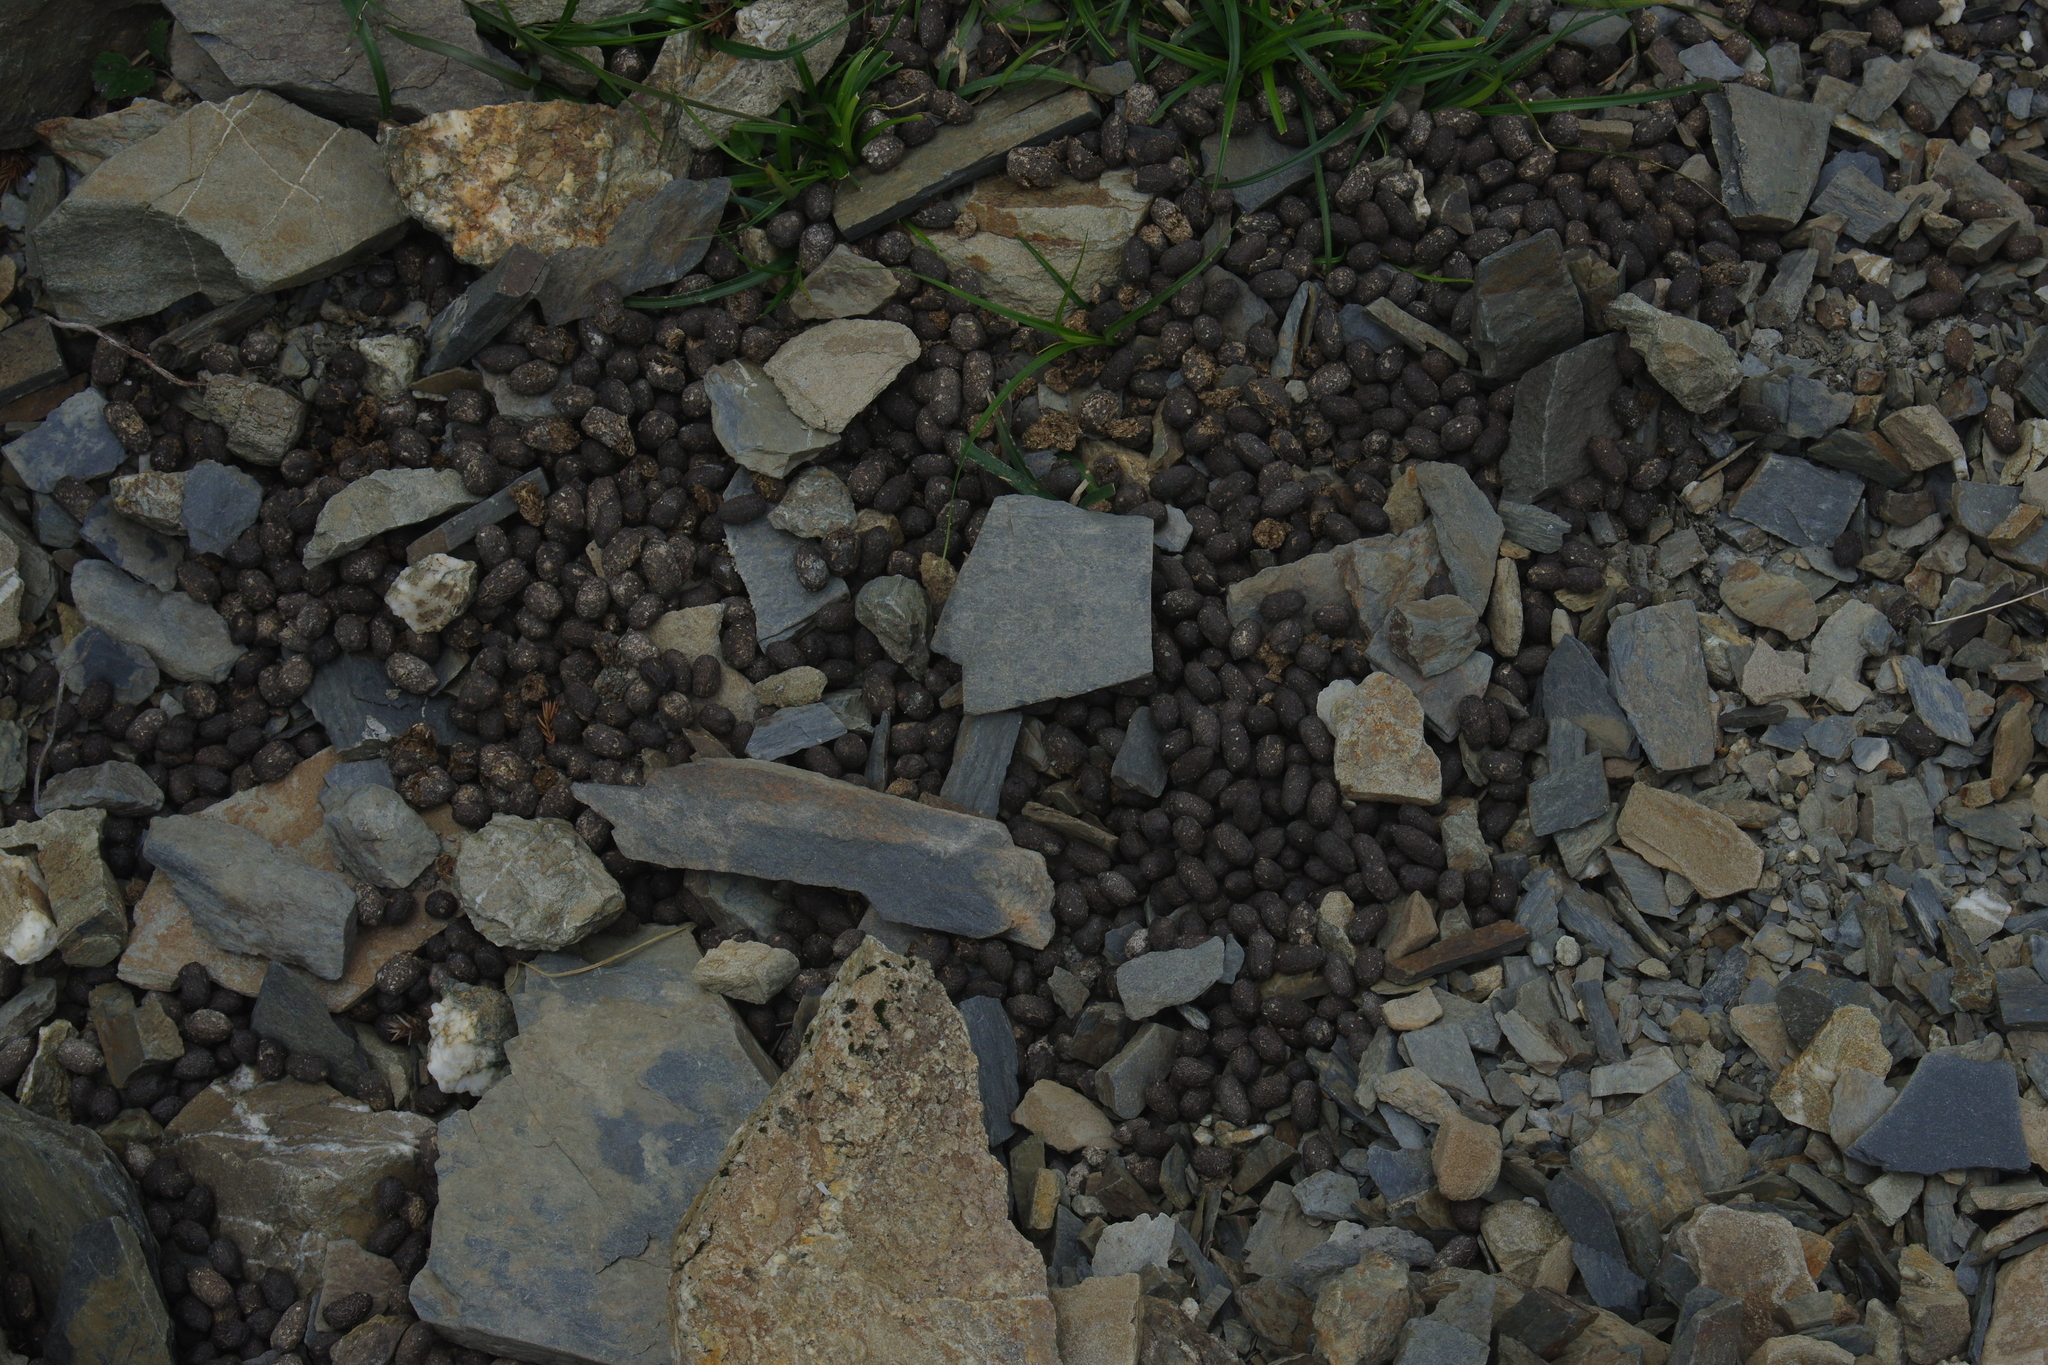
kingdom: Animalia
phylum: Chordata
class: Mammalia
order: Artiodactyla
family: Bovidae
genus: Capricornis
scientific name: Capricornis swinhoei
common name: Formosan serow
